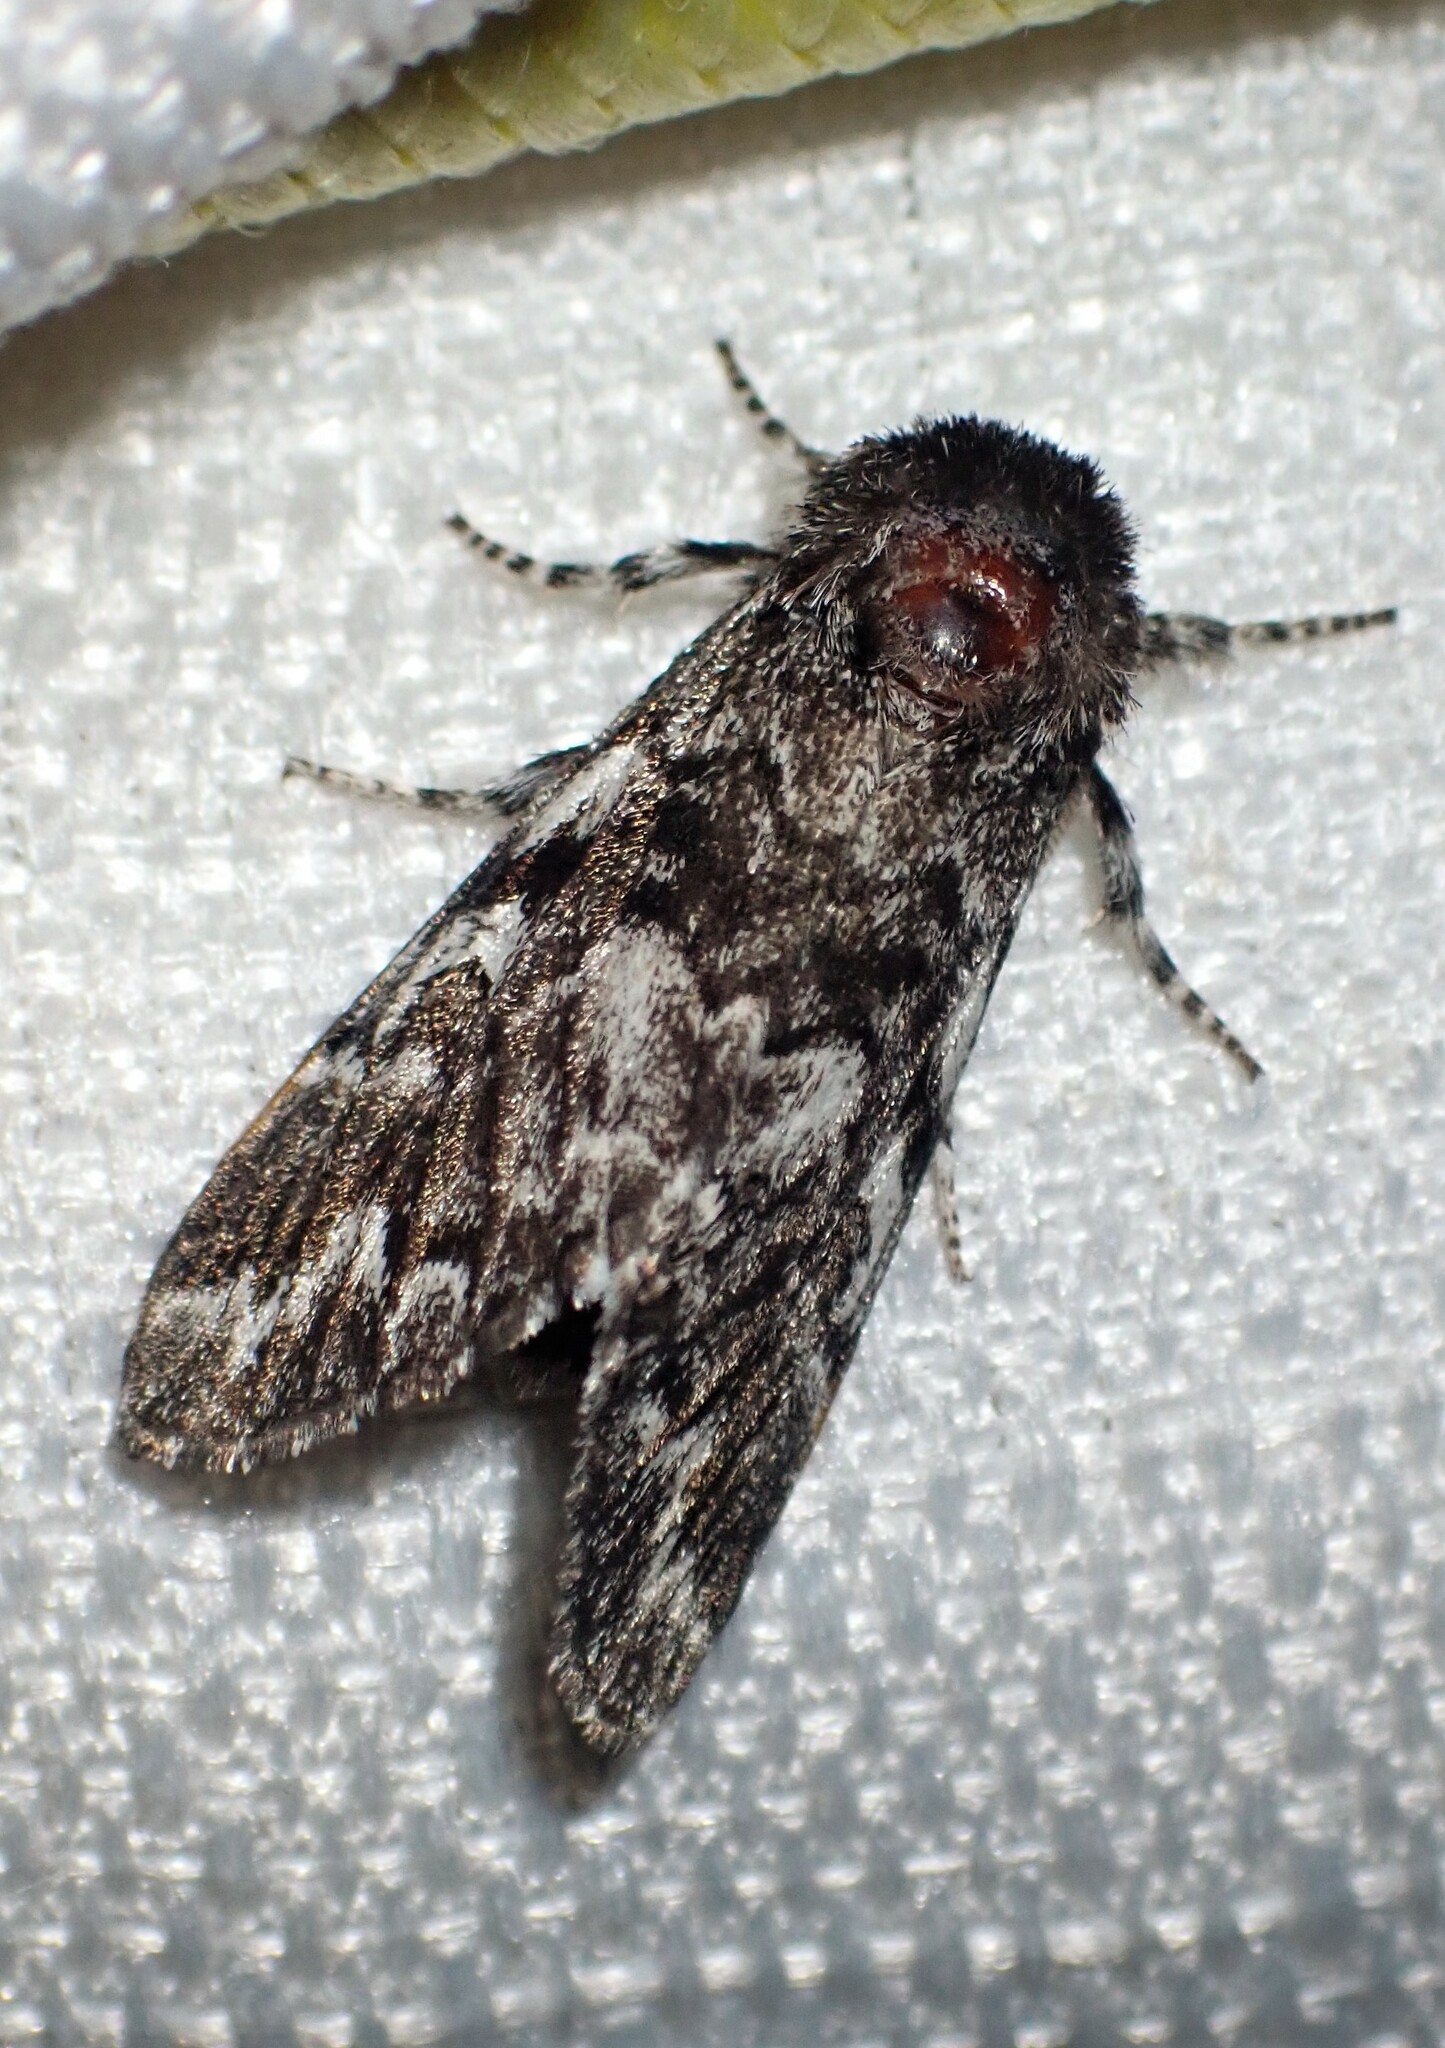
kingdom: Animalia
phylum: Arthropoda
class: Insecta
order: Lepidoptera
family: Noctuidae
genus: Panthea
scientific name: Panthea acronyctoides
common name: Black zigzag moth
